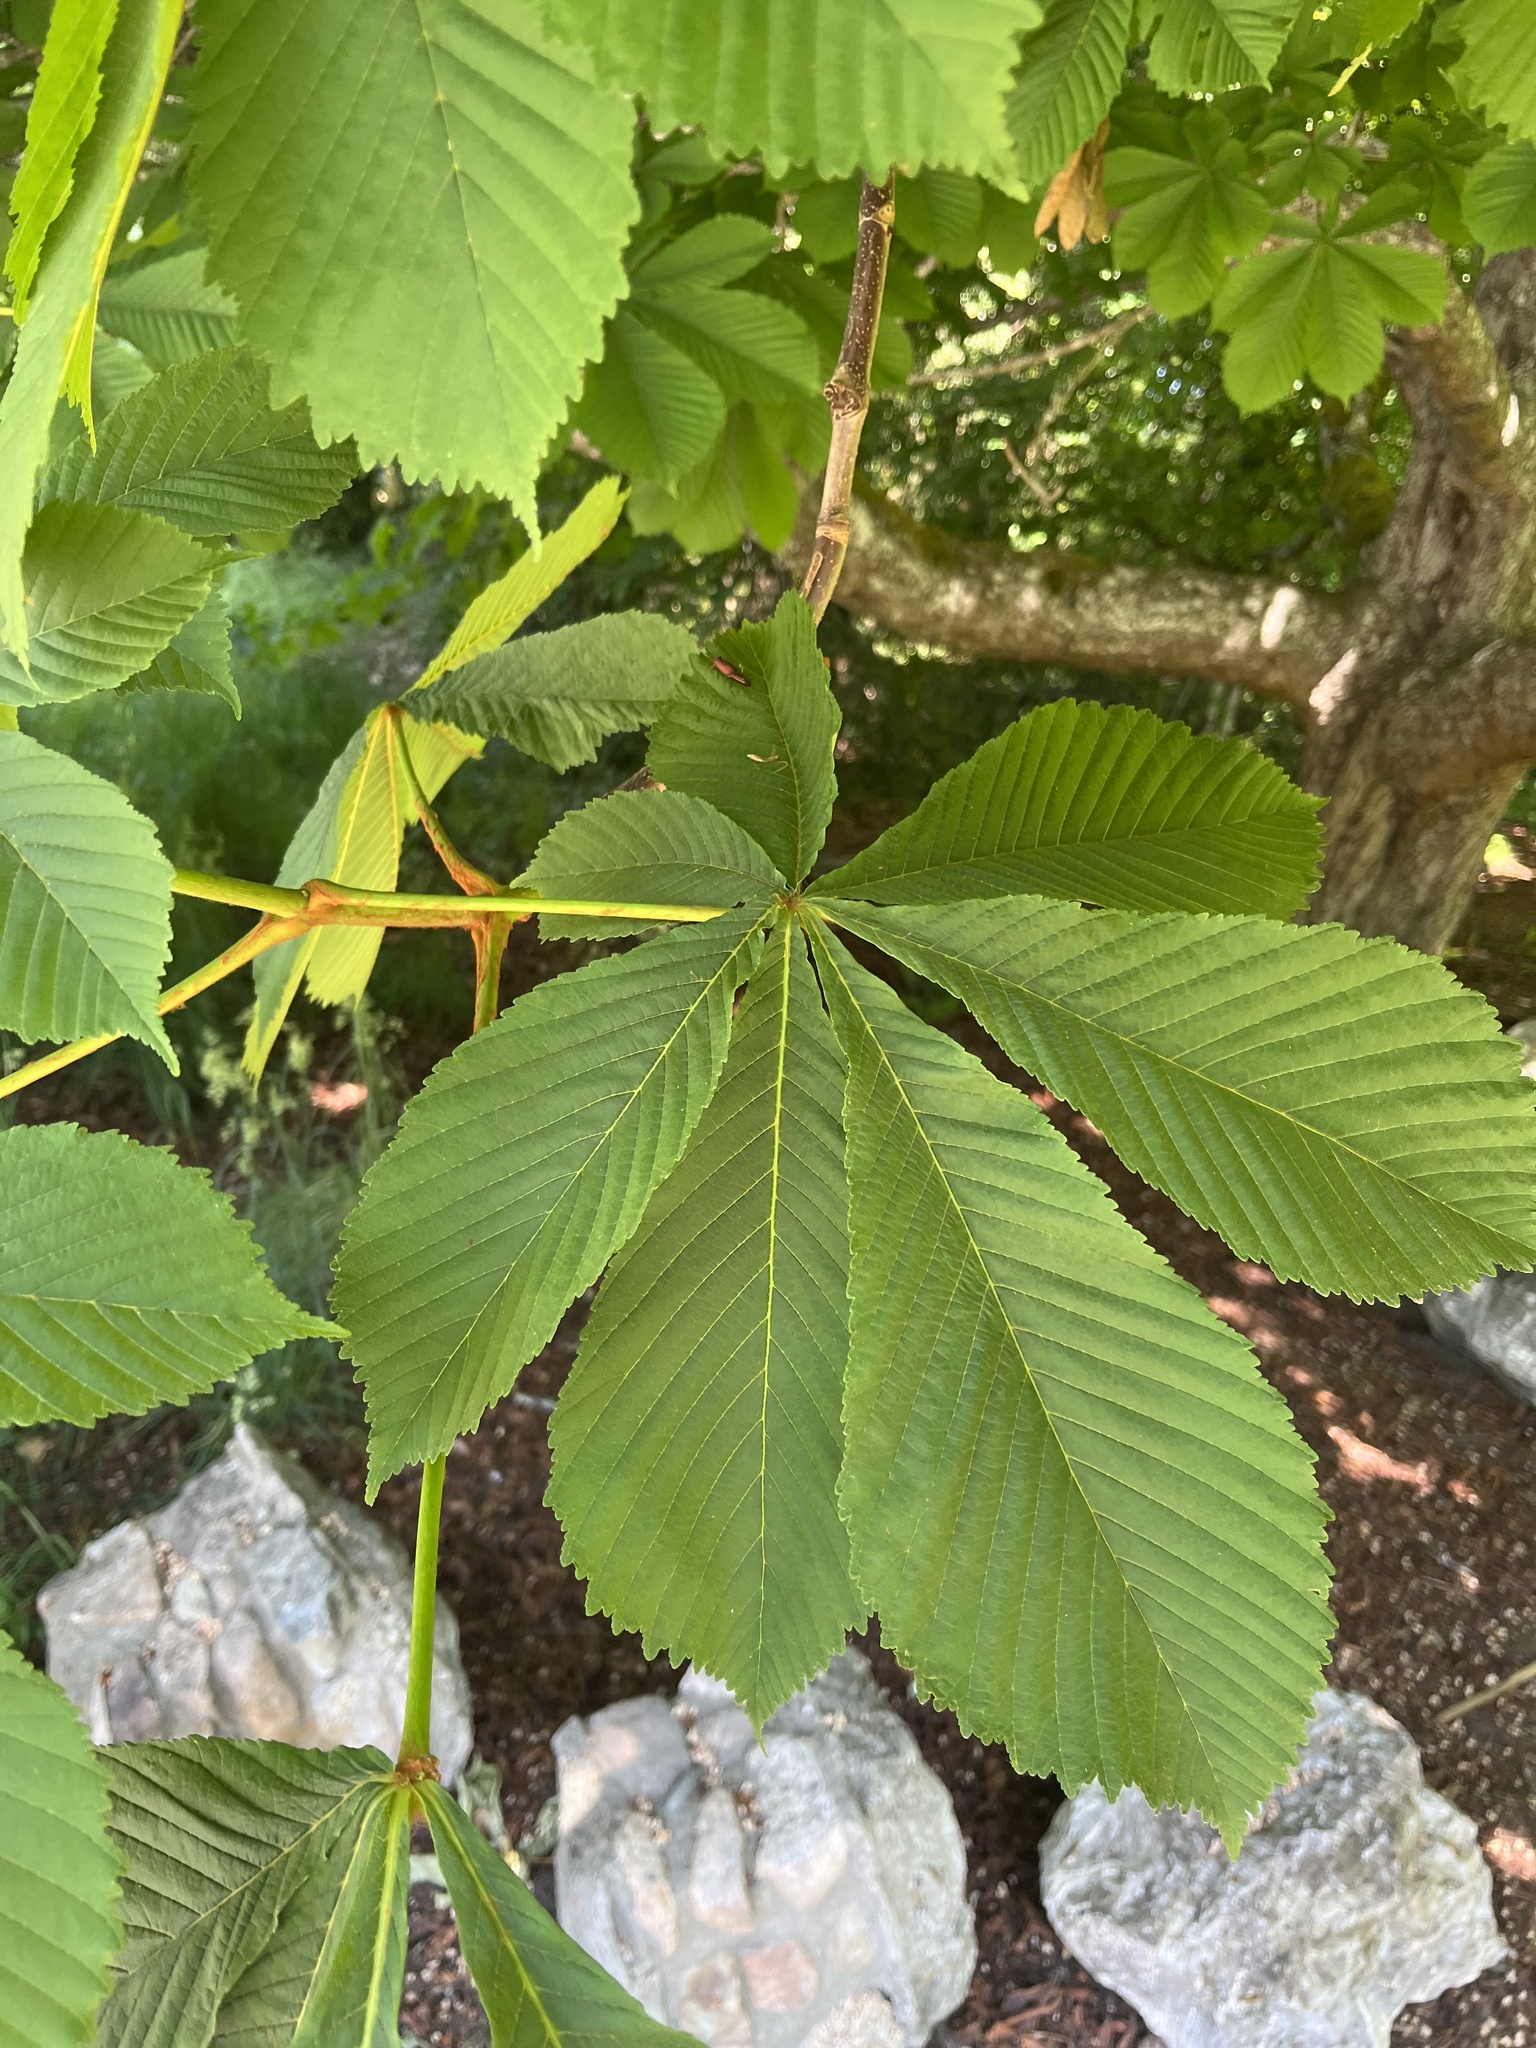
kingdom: Plantae
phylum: Tracheophyta
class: Magnoliopsida
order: Sapindales
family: Sapindaceae
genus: Aesculus
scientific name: Aesculus hippocastanum
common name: Horse-chestnut
